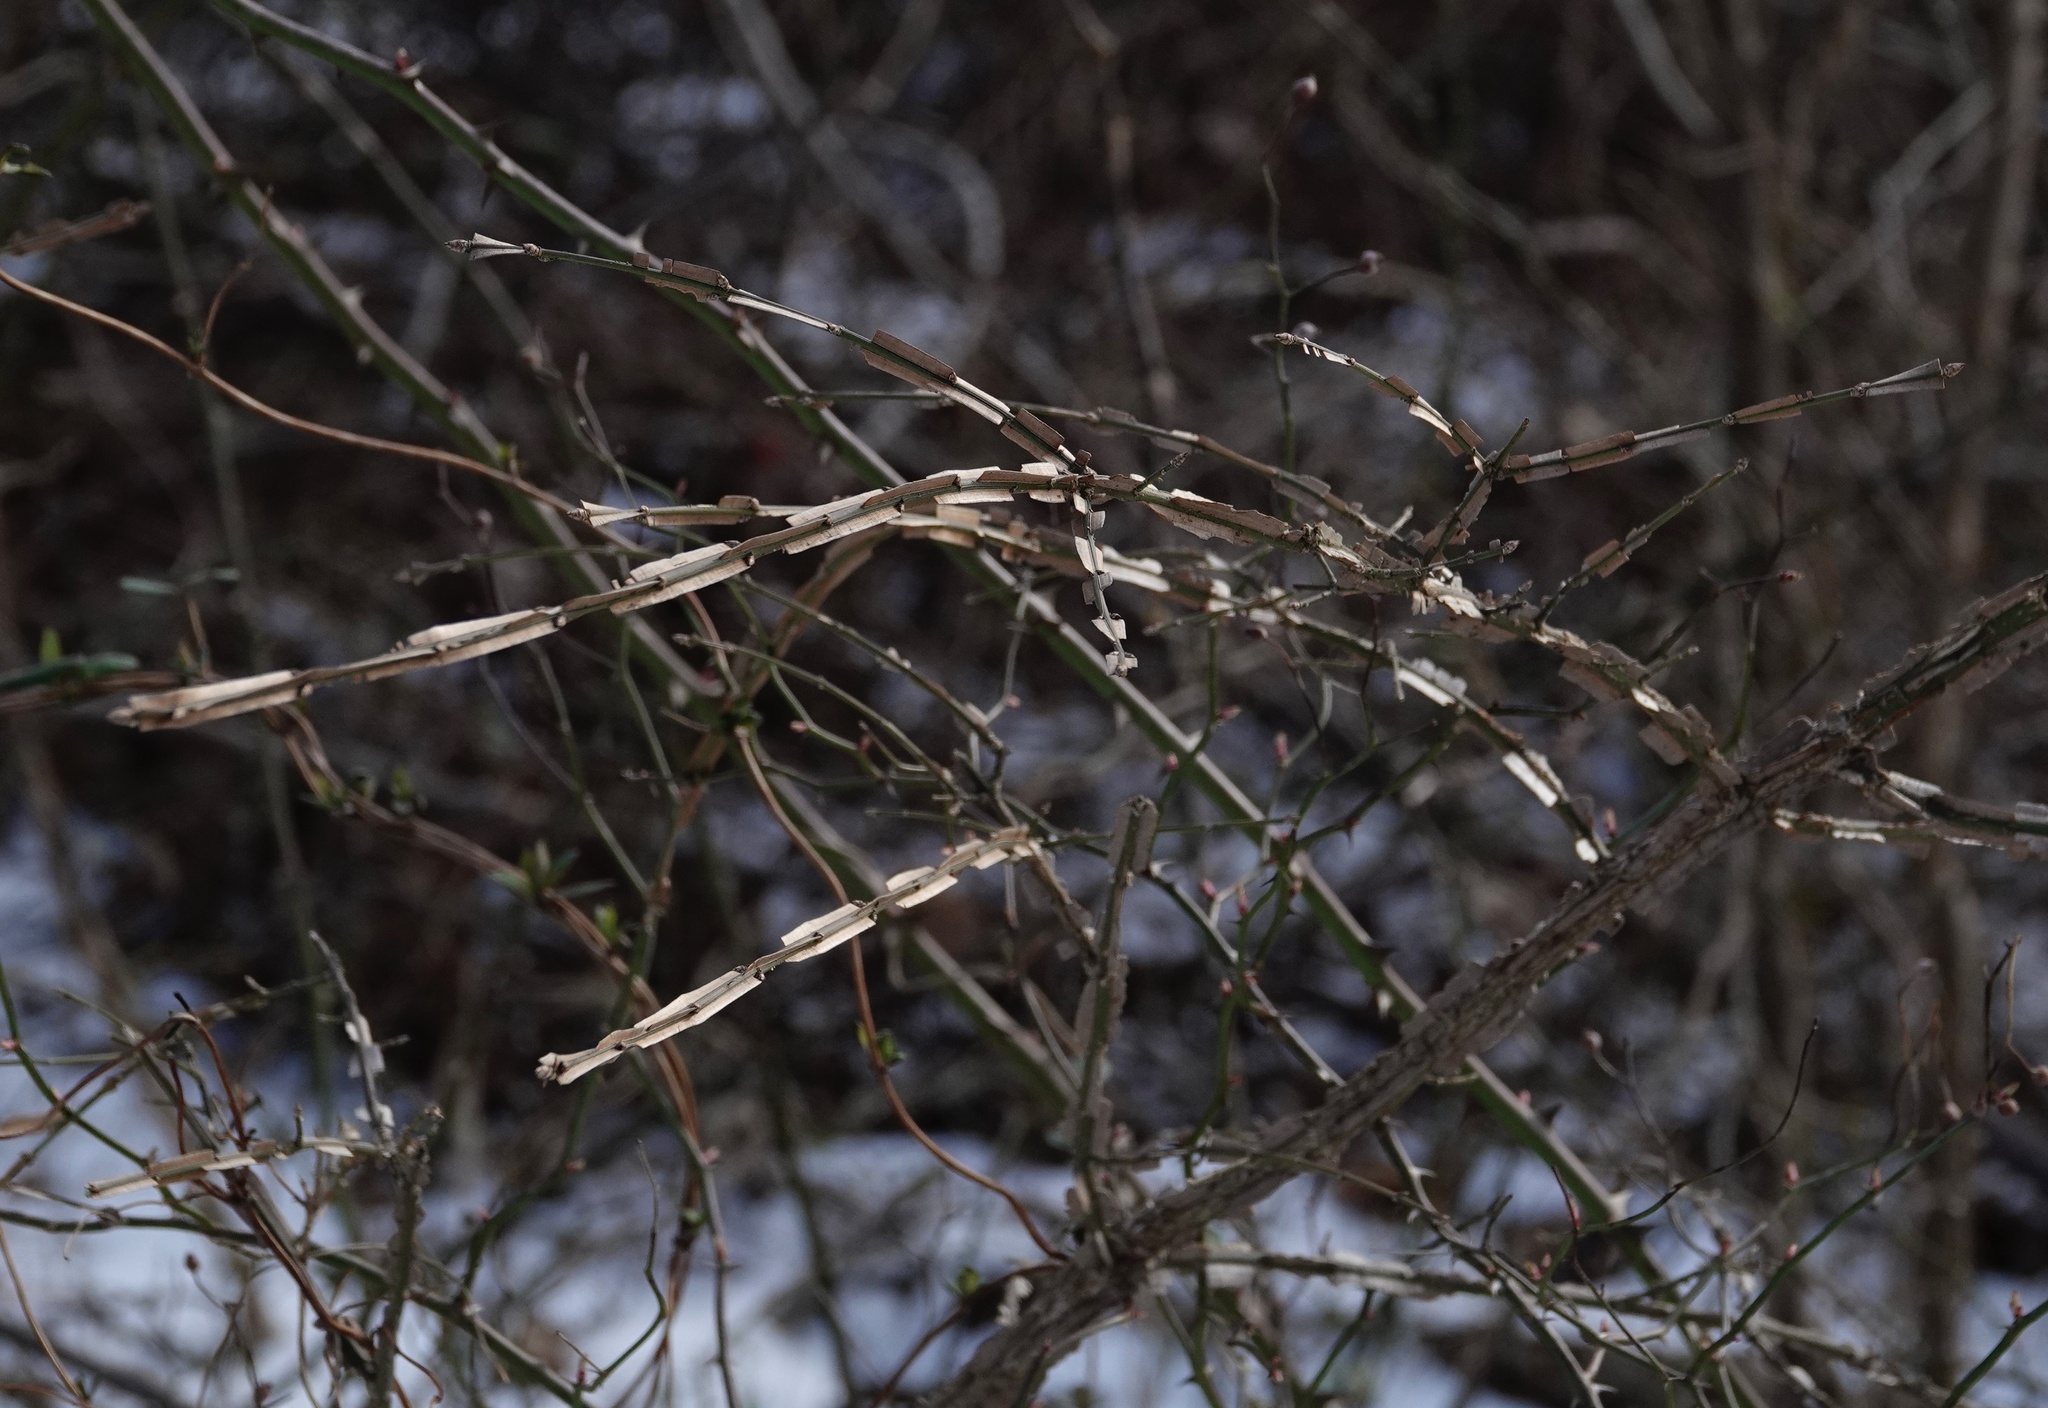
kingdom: Plantae
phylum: Tracheophyta
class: Magnoliopsida
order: Celastrales
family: Celastraceae
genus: Euonymus
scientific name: Euonymus alatus
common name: Winged euonymus
